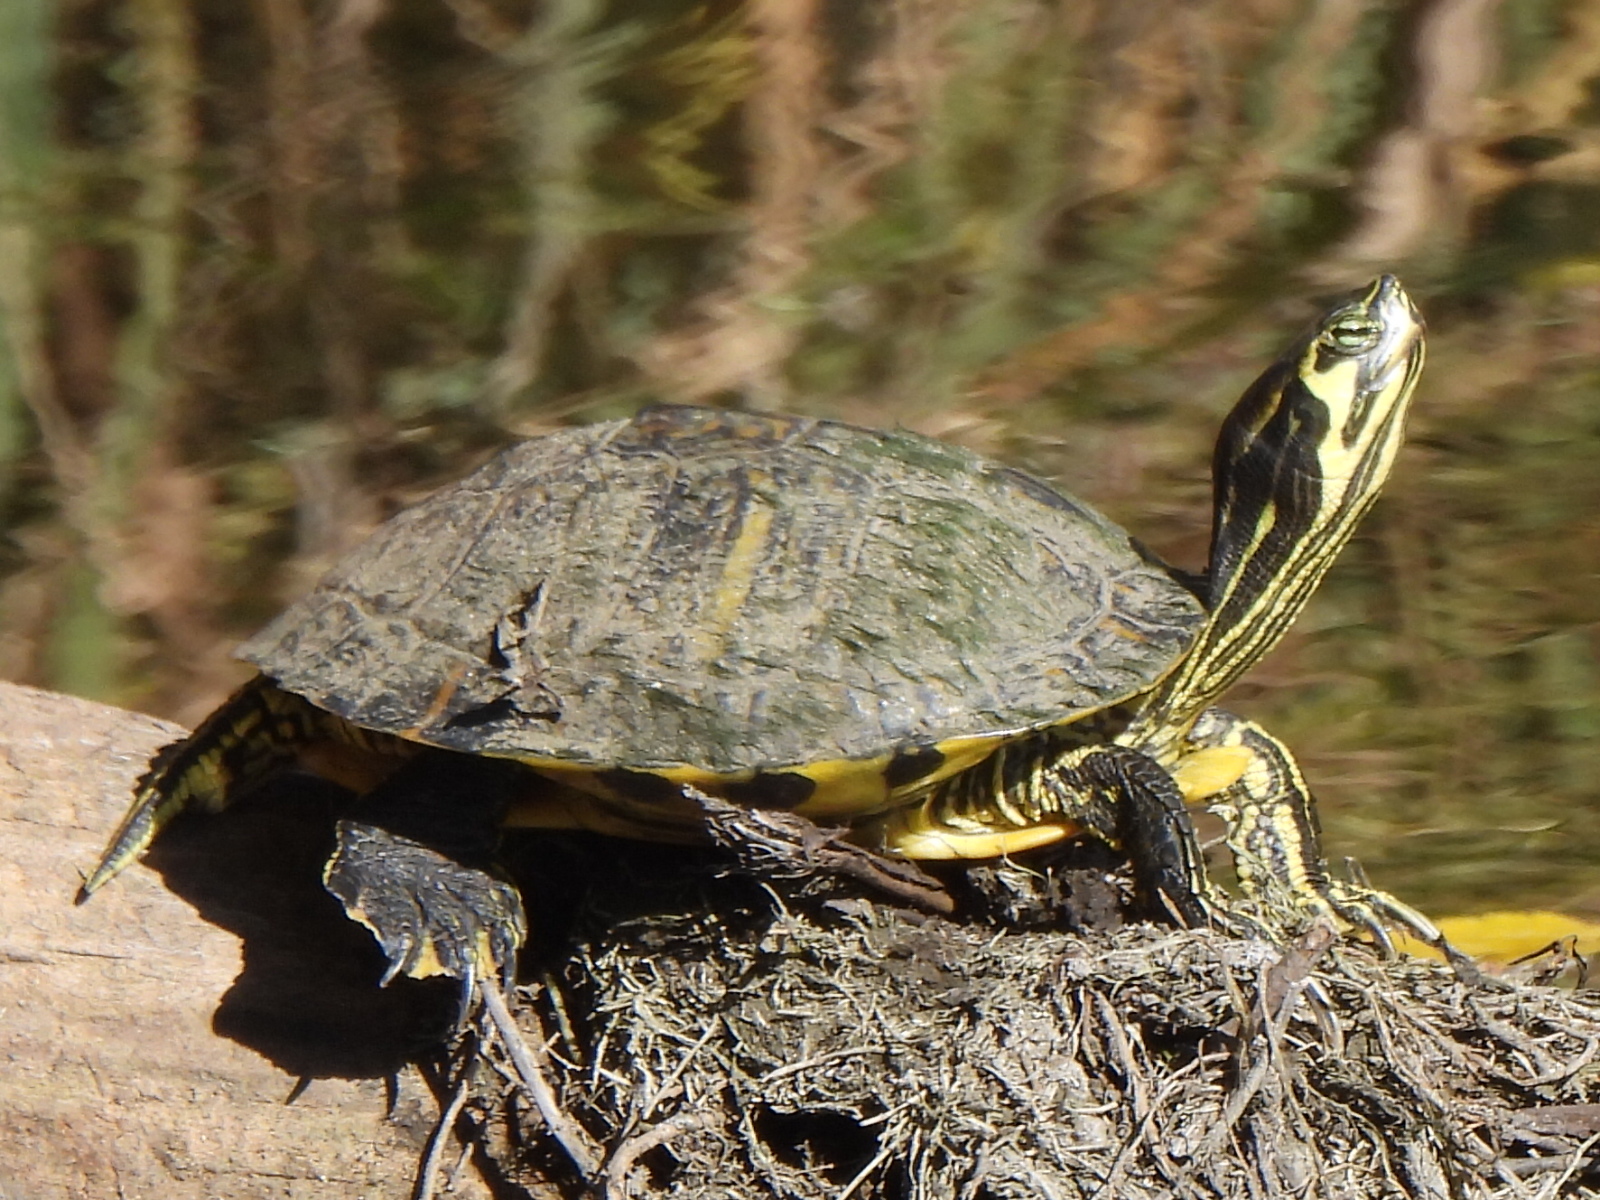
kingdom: Animalia
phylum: Chordata
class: Testudines
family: Emydidae
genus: Trachemys
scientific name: Trachemys scripta
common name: Slider
